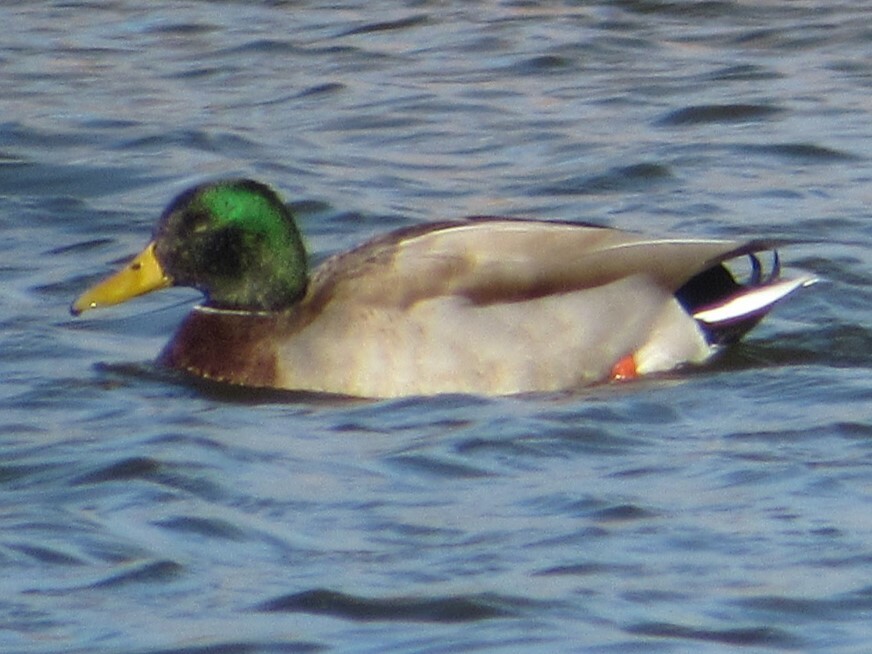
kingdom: Animalia
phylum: Chordata
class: Aves
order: Anseriformes
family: Anatidae
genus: Anas
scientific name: Anas platyrhynchos
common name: Mallard
